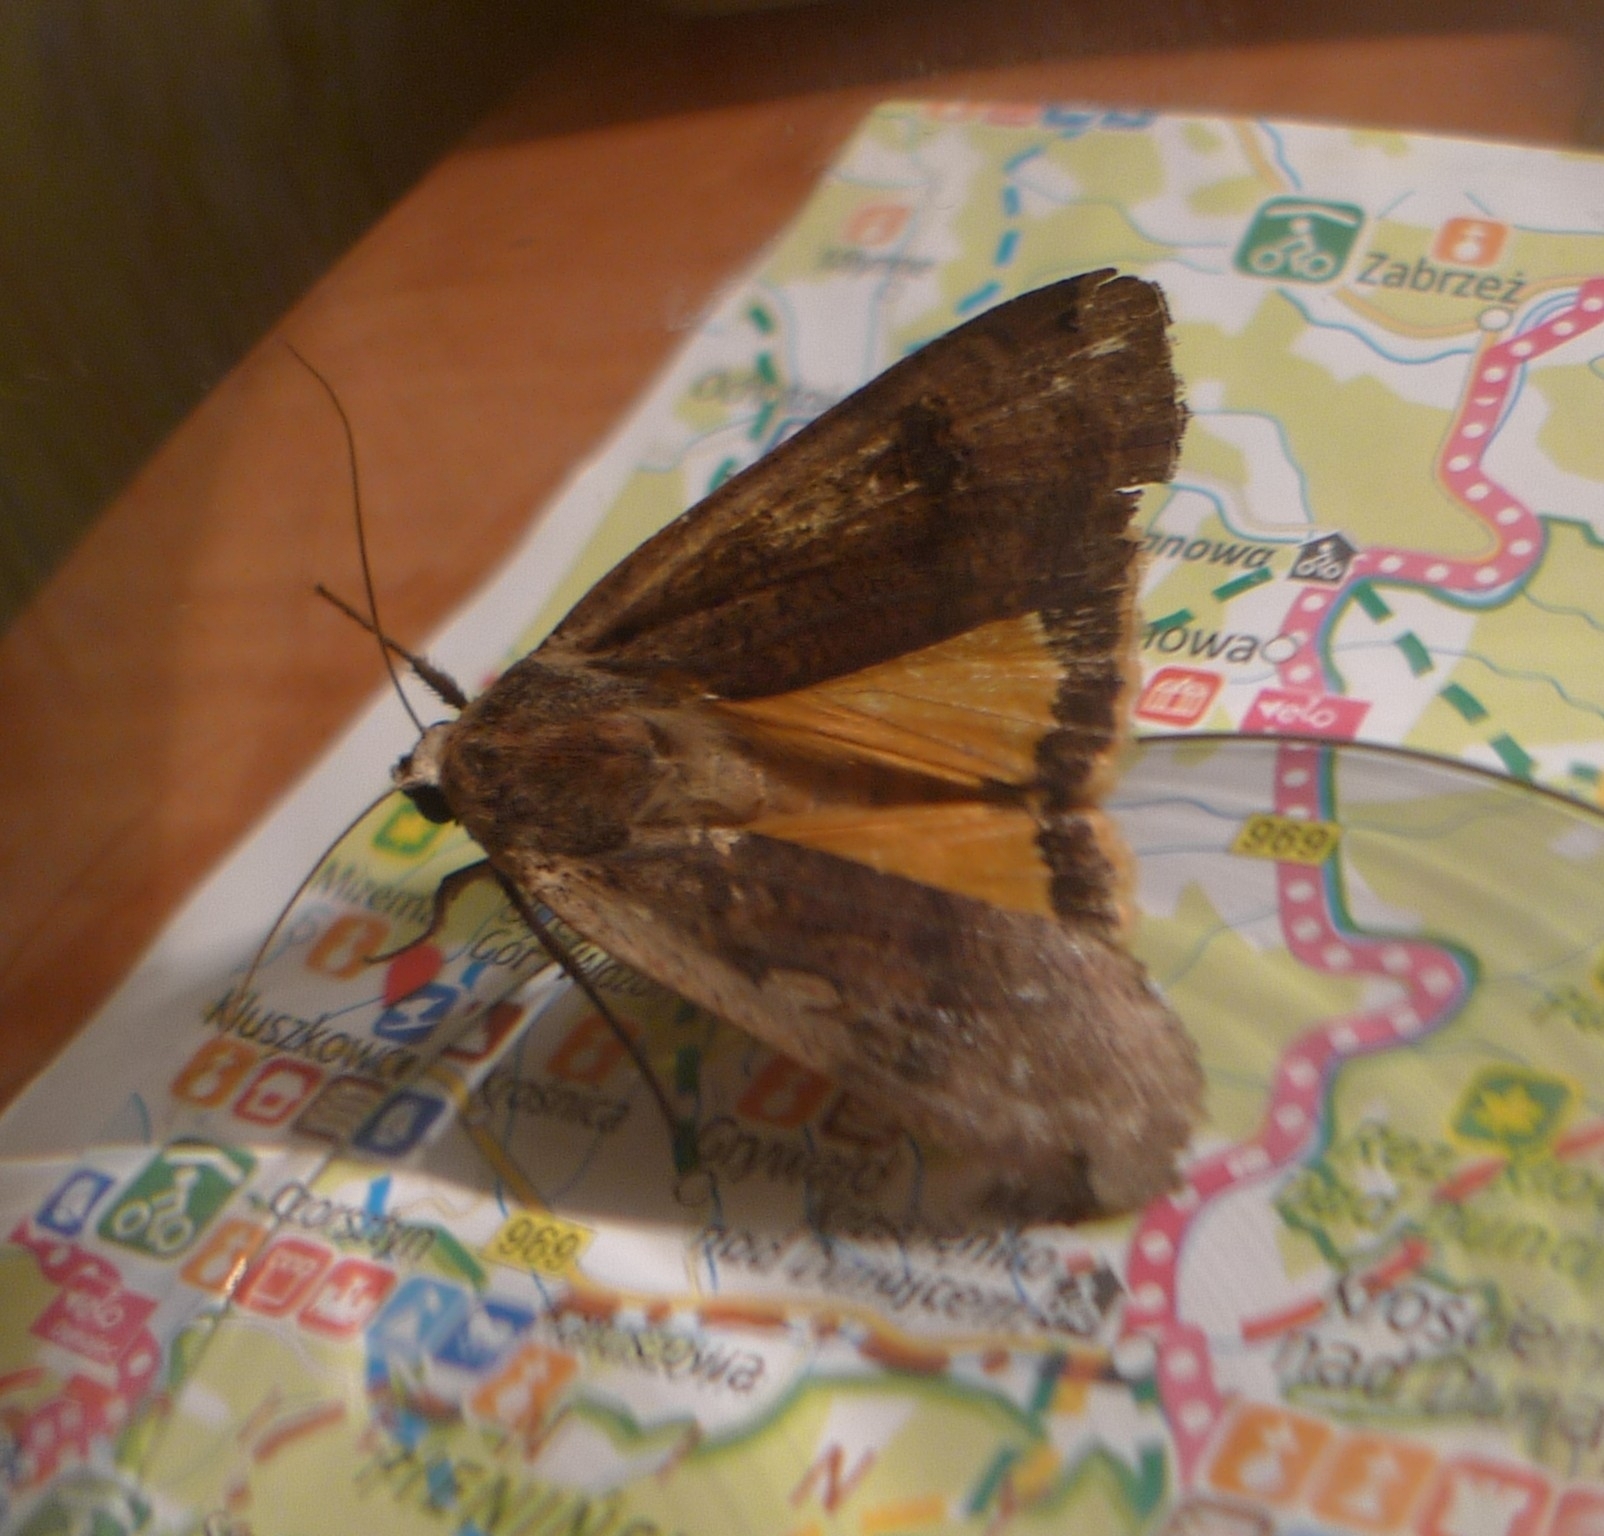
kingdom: Animalia
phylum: Arthropoda
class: Insecta
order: Lepidoptera
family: Noctuidae
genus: Noctua
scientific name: Noctua pronuba
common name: Large yellow underwing
